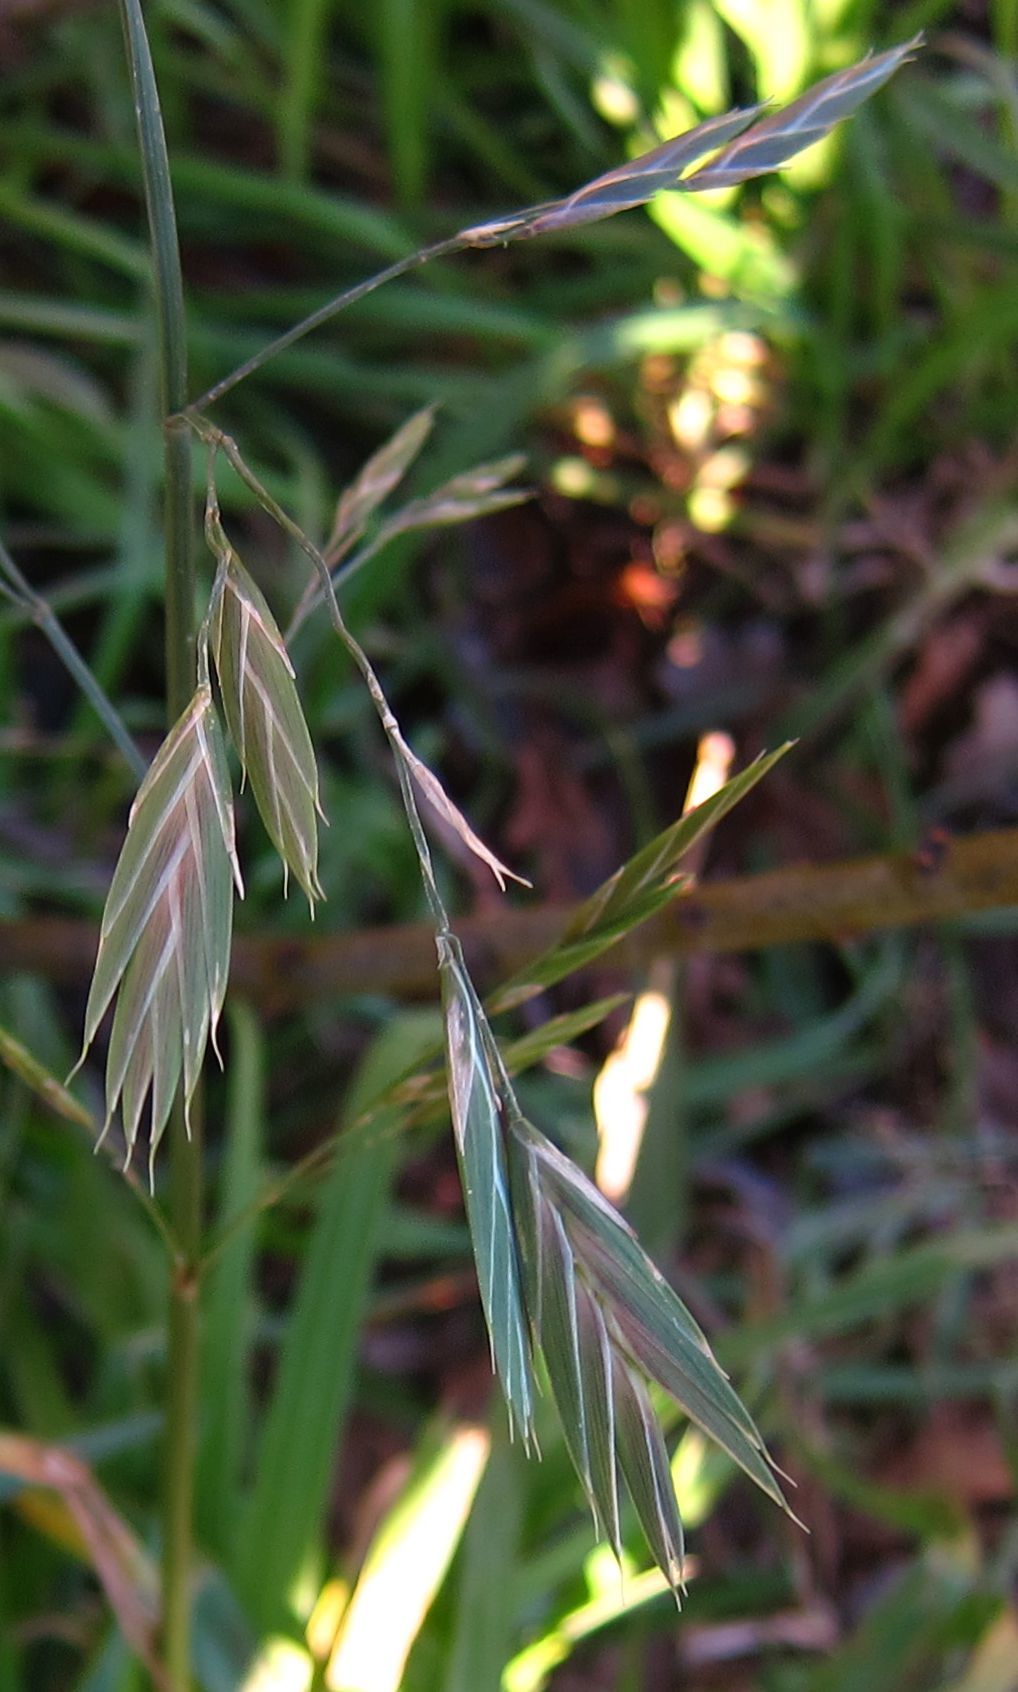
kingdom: Plantae
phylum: Tracheophyta
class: Liliopsida
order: Poales
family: Poaceae
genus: Bromus
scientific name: Bromus catharticus
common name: Rescuegrass
